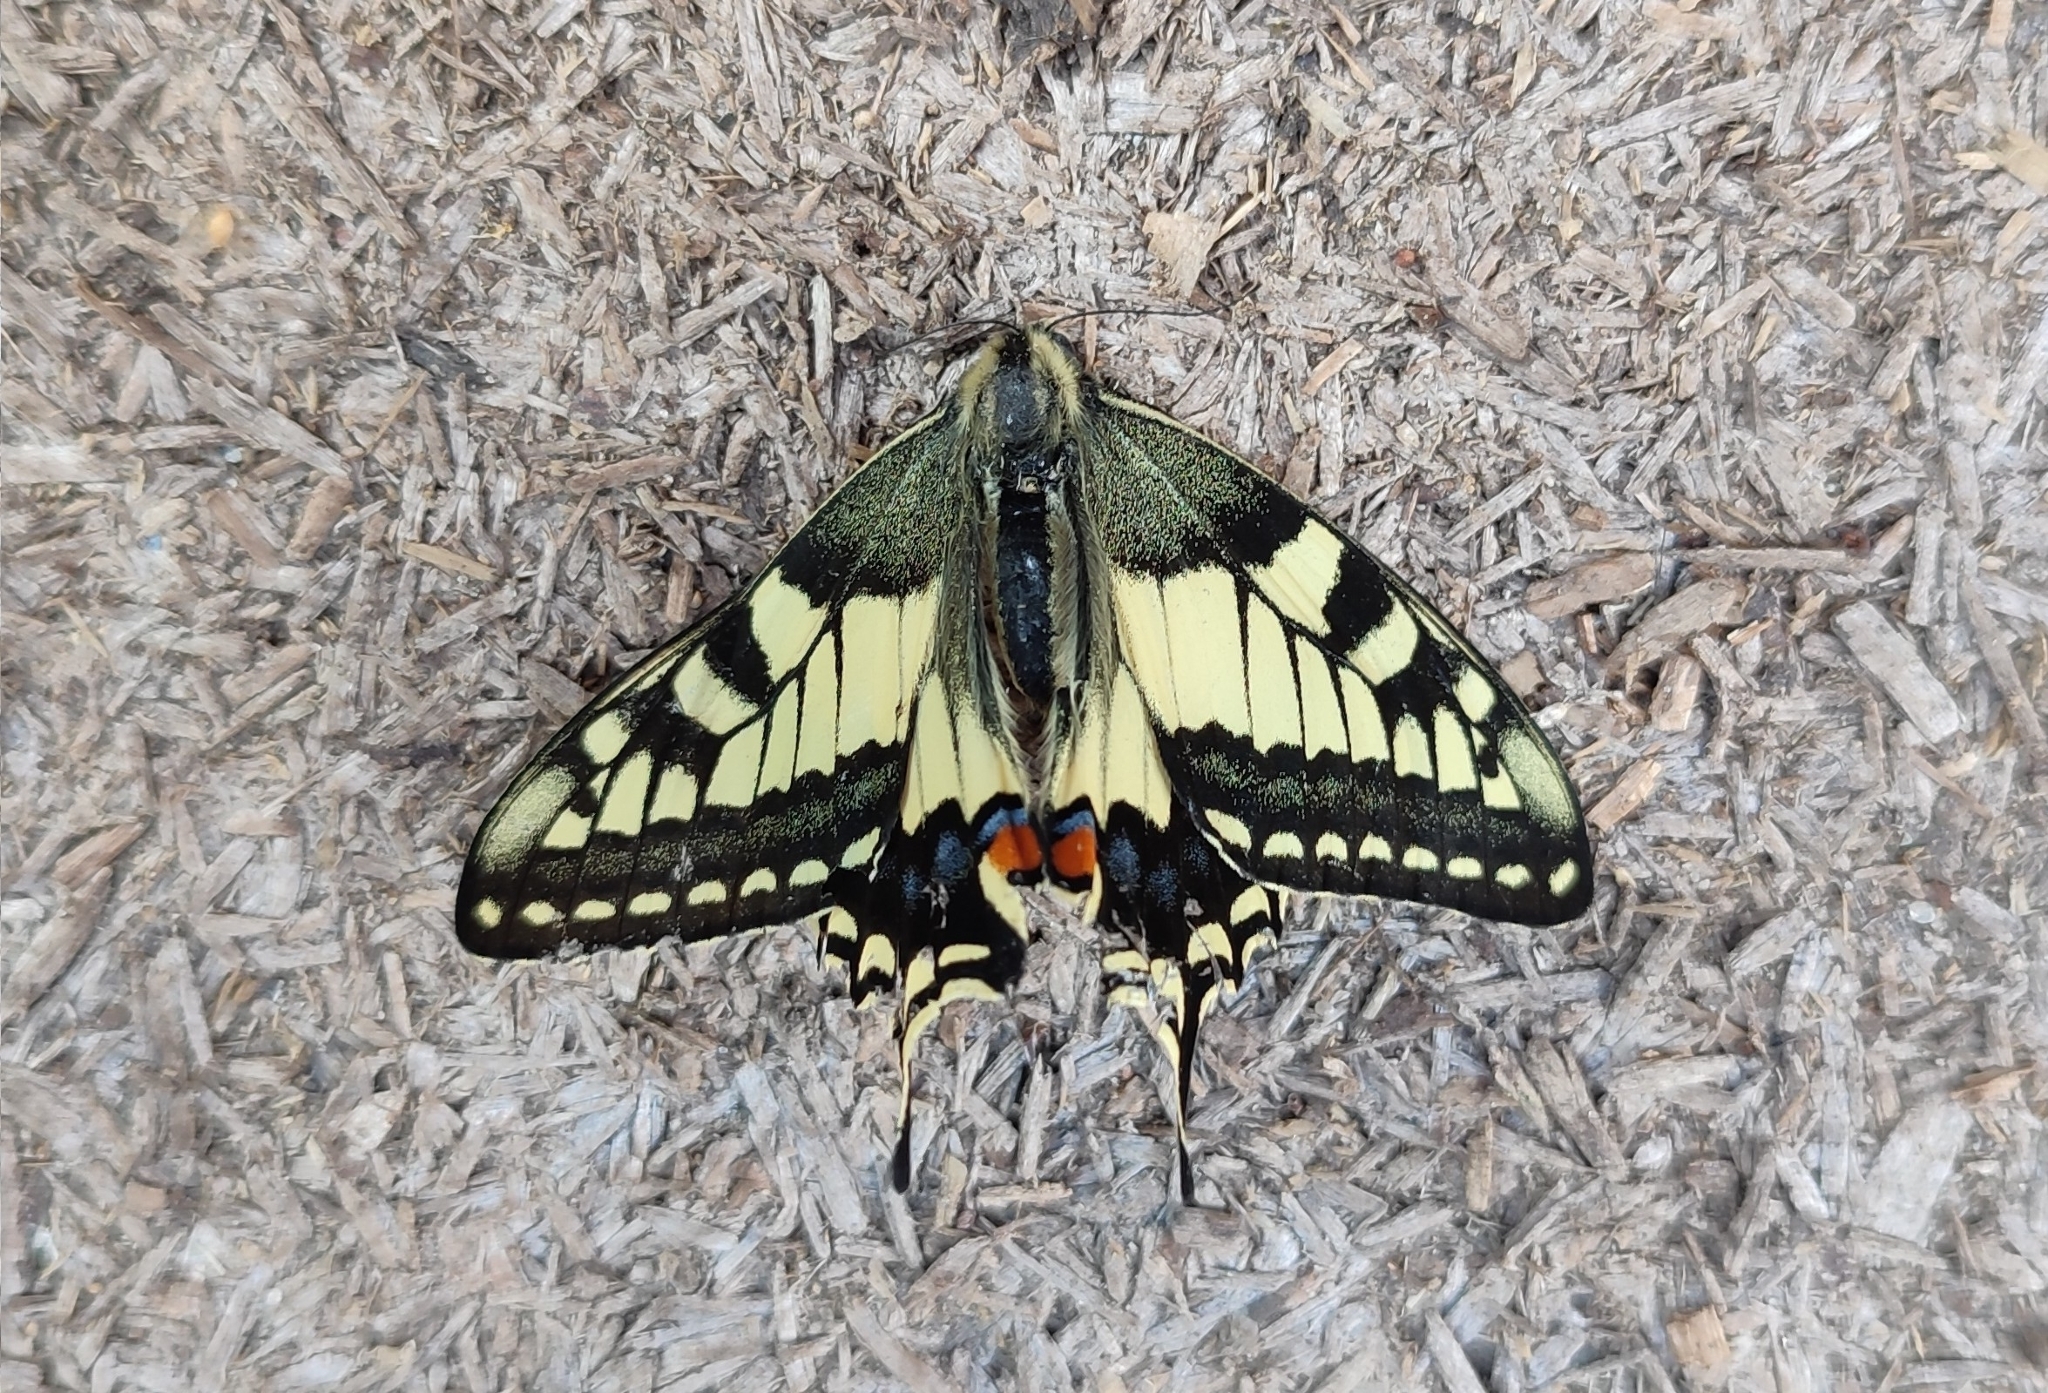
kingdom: Animalia
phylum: Arthropoda
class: Insecta
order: Lepidoptera
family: Papilionidae
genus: Papilio
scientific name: Papilio machaon
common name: Swallowtail
